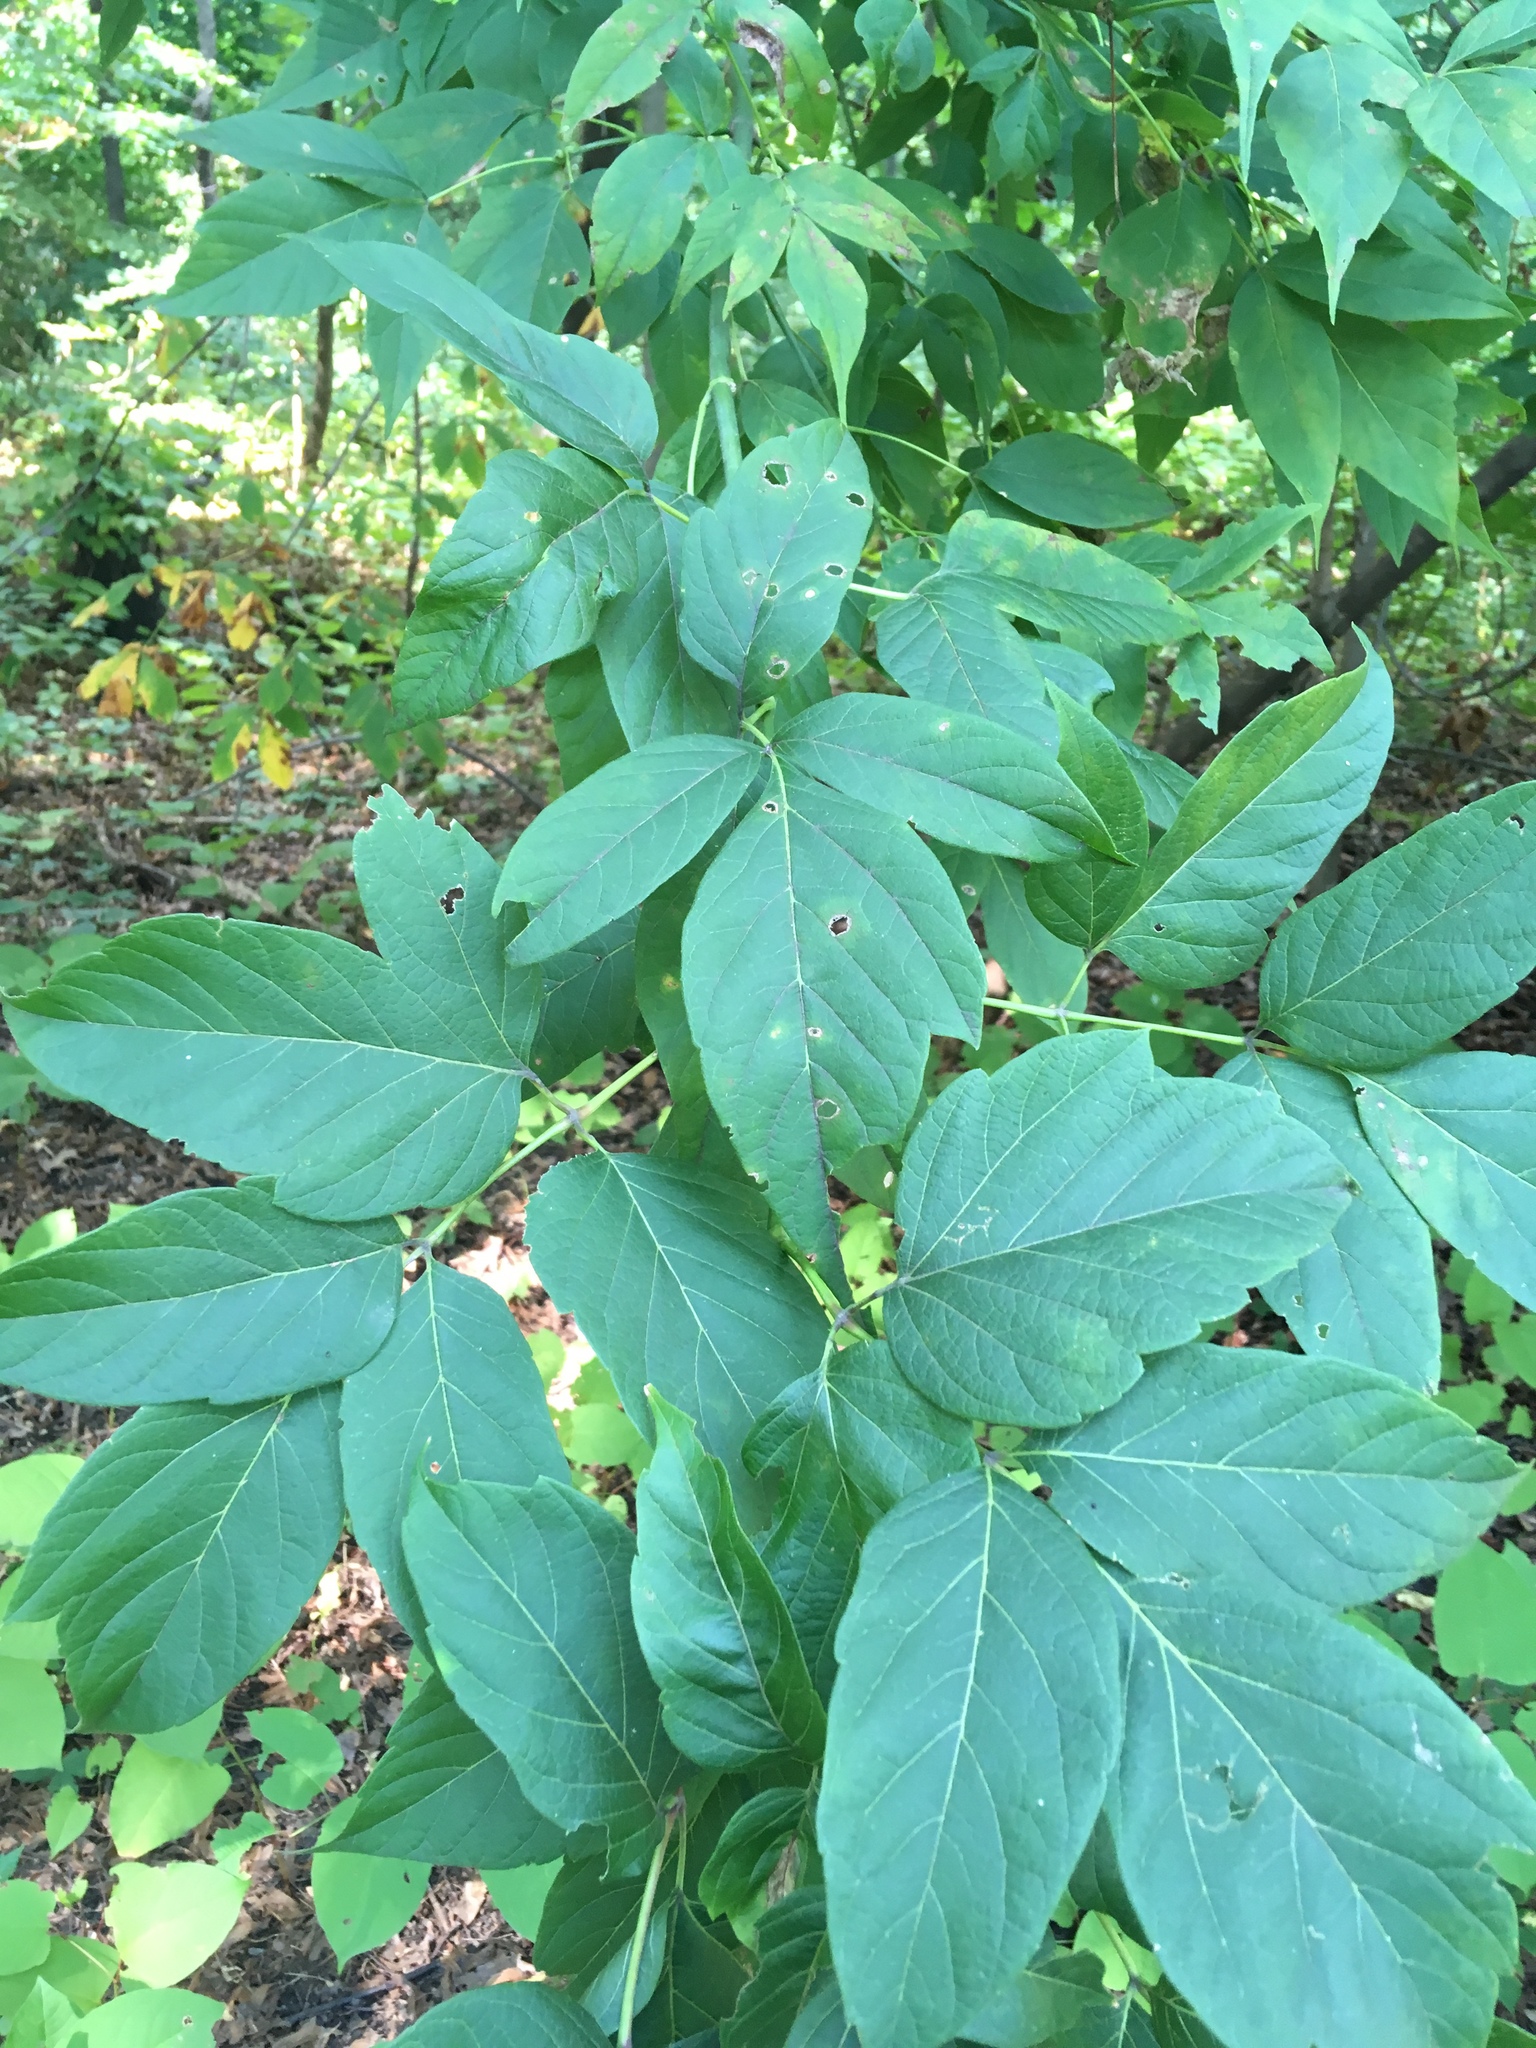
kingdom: Plantae
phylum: Tracheophyta
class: Magnoliopsida
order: Sapindales
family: Sapindaceae
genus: Acer
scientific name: Acer negundo
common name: Ashleaf maple
